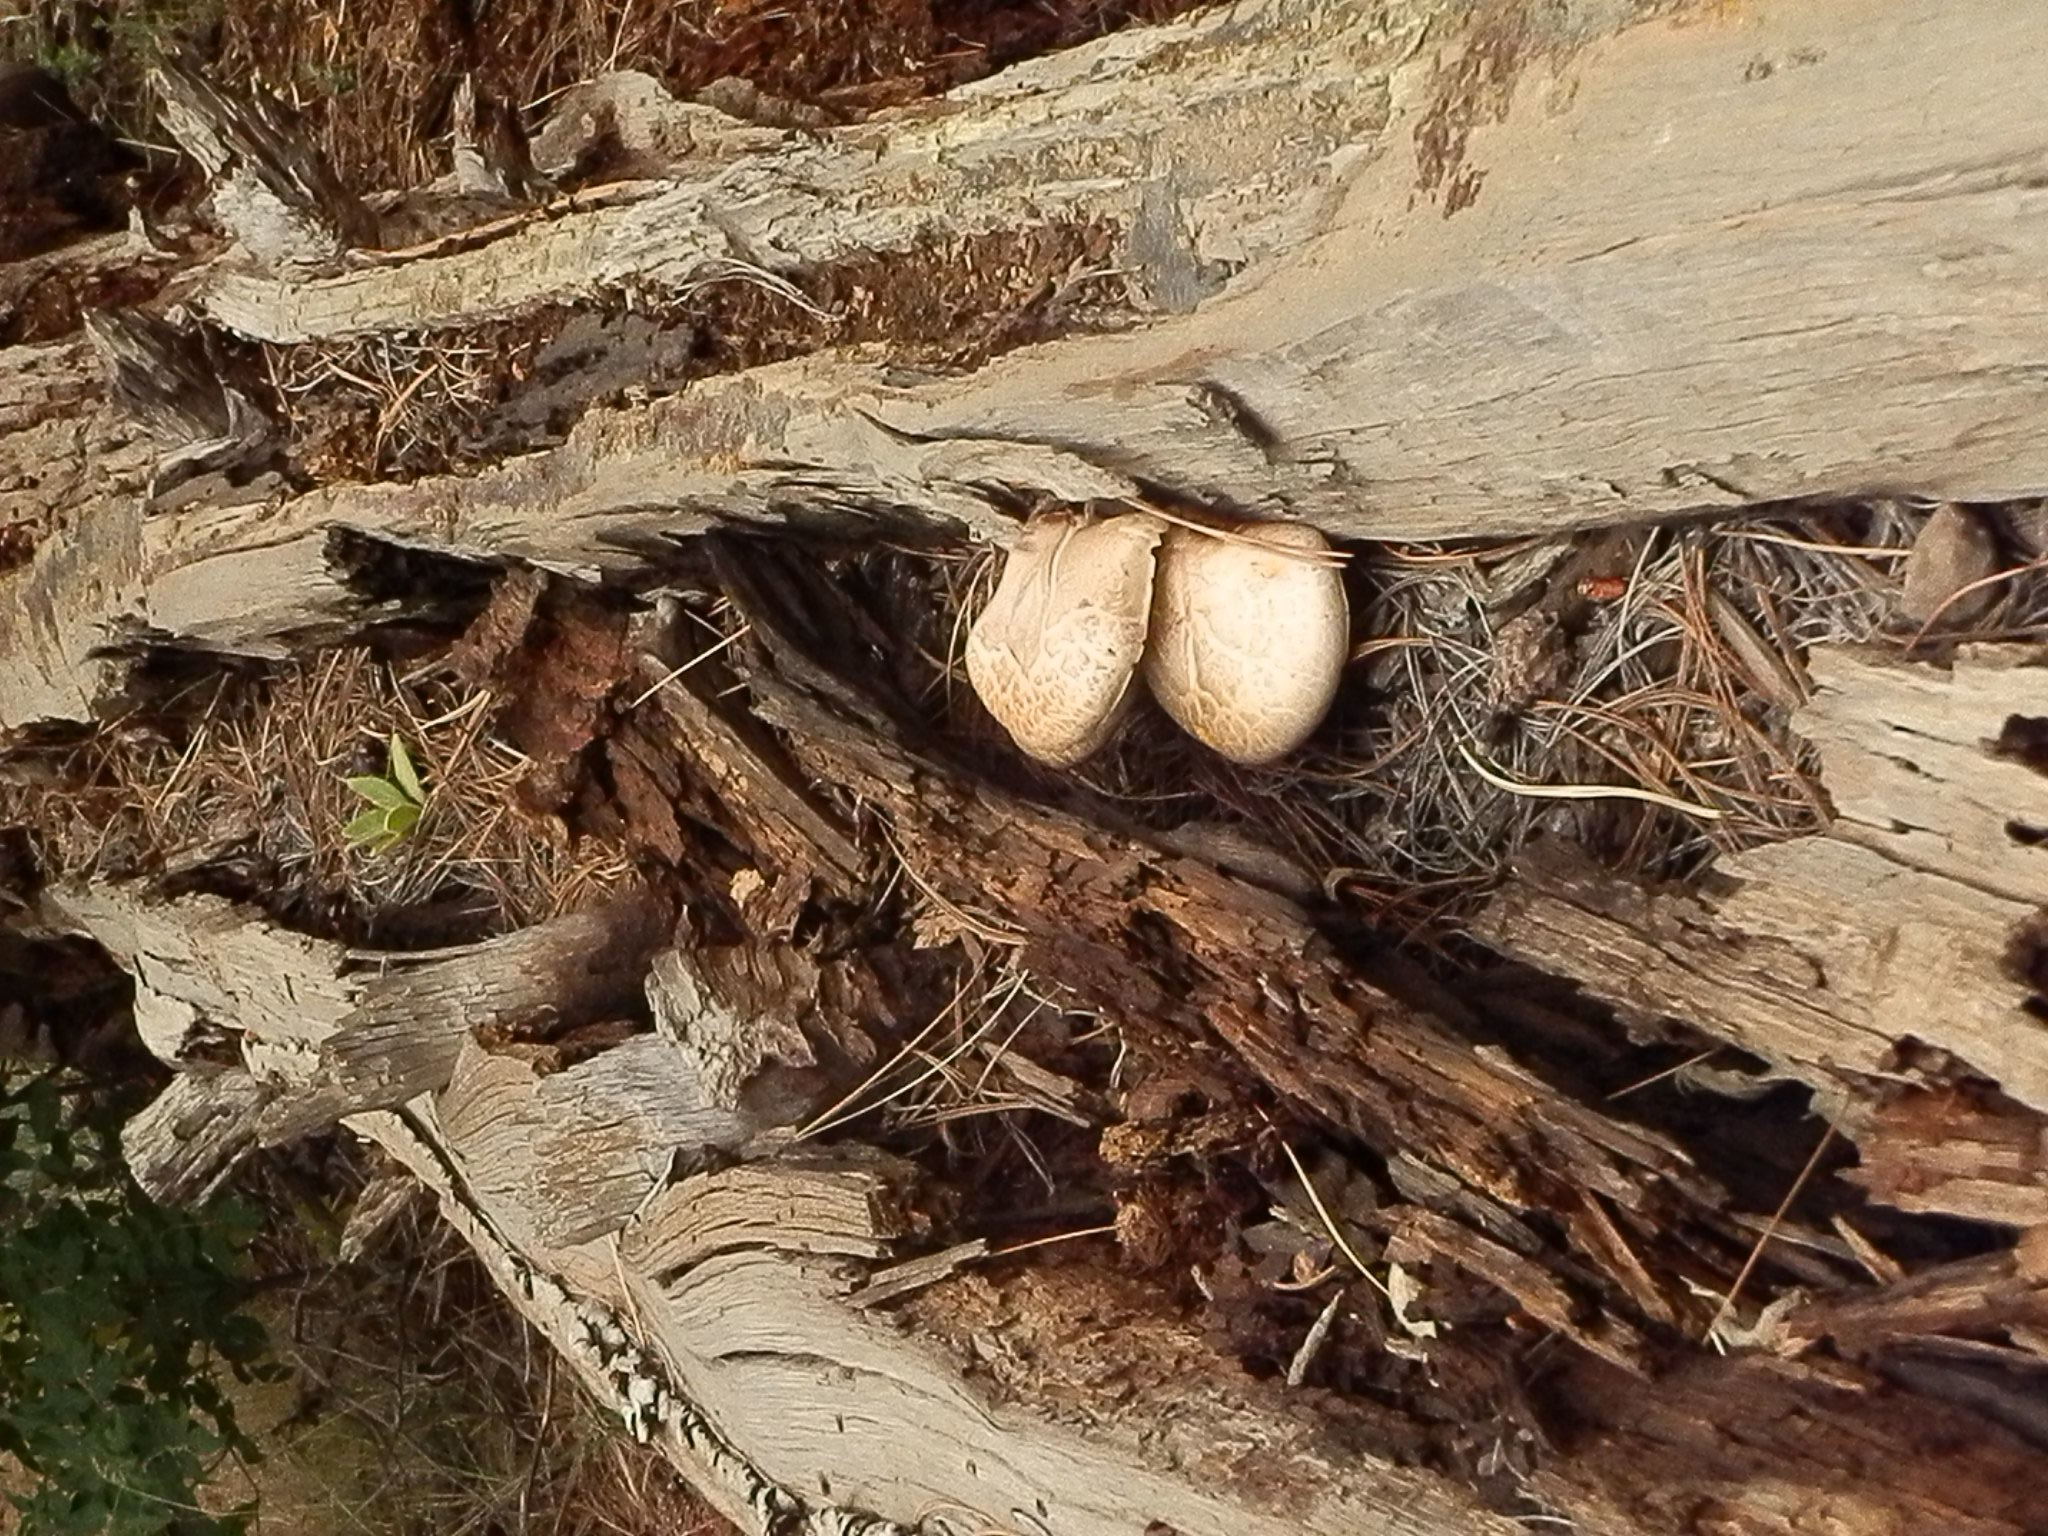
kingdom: Fungi
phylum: Basidiomycota
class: Agaricomycetes
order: Gloeophyllales
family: Gloeophyllaceae
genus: Neolentinus
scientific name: Neolentinus ponderosus
